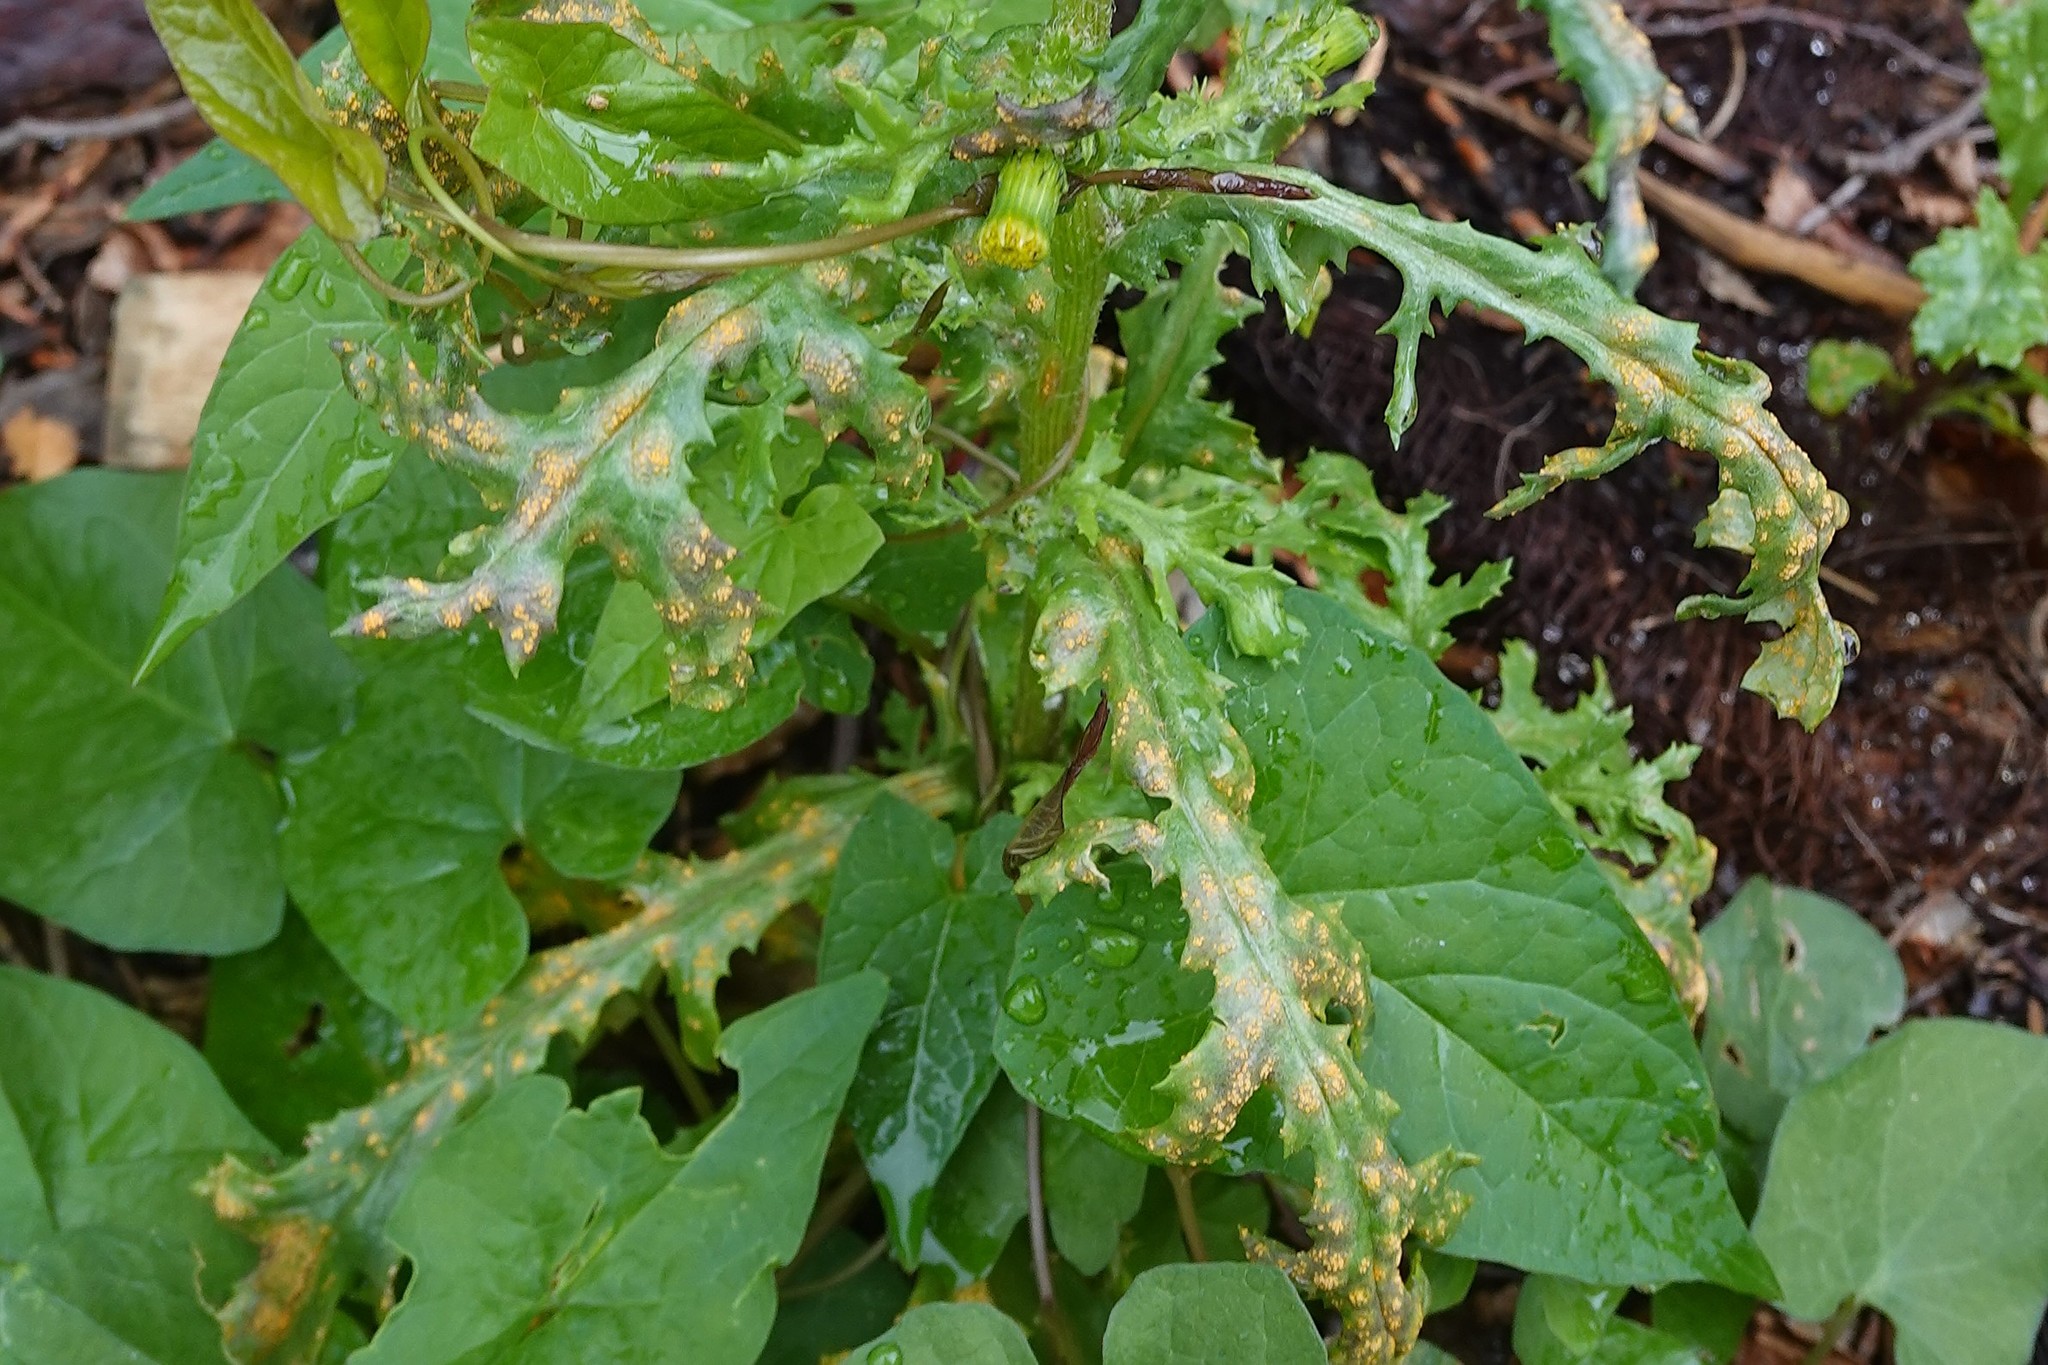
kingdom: Fungi
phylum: Basidiomycota
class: Pucciniomycetes
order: Pucciniales
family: Pucciniaceae
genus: Puccinia
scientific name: Puccinia lagenophorae
